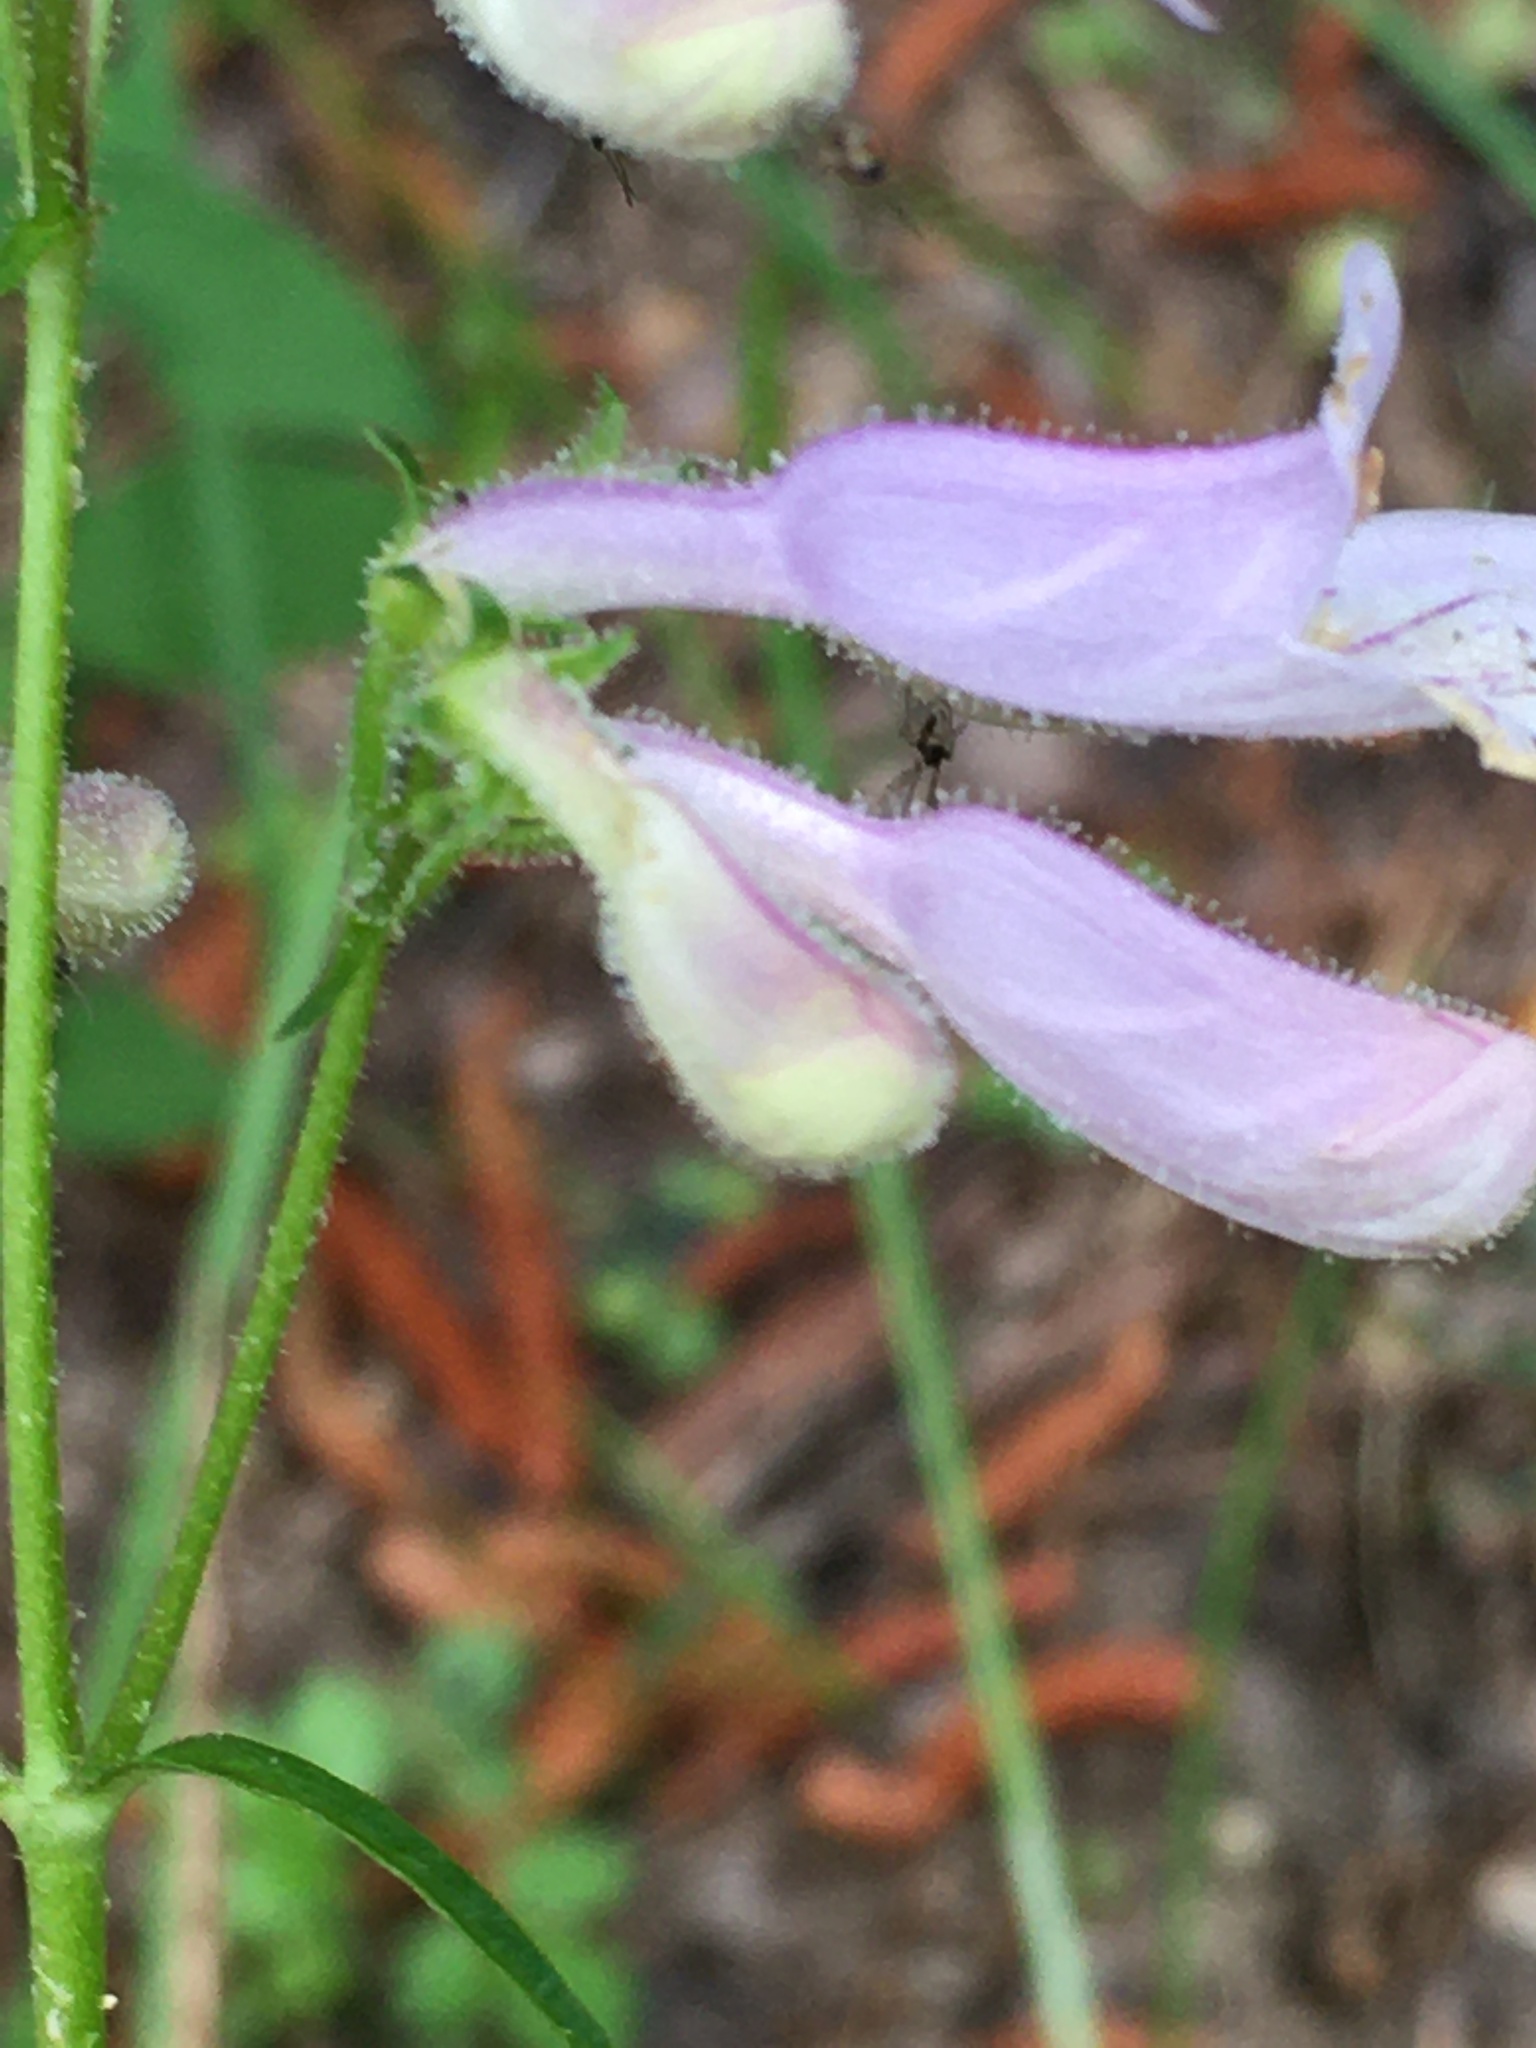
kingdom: Plantae
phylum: Tracheophyta
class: Magnoliopsida
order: Lamiales
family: Plantaginaceae
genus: Penstemon
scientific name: Penstemon laevigatus
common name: Eastern beardtongue
